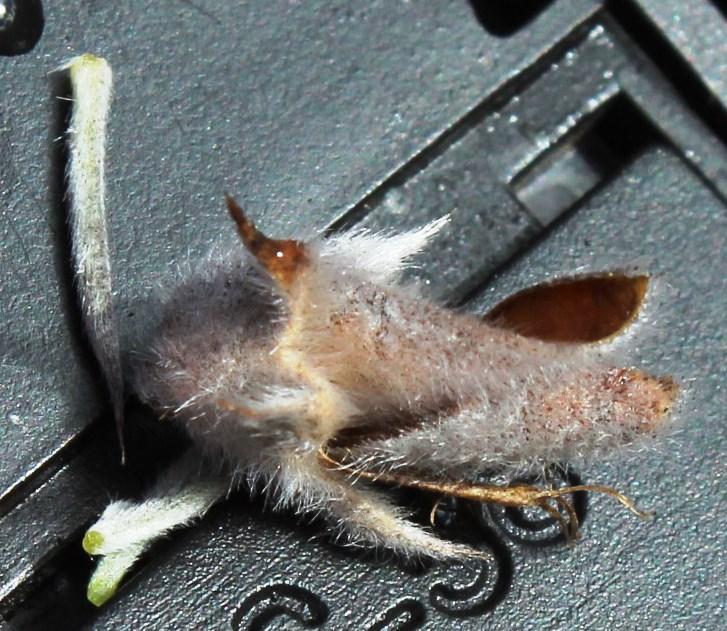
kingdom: Plantae
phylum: Tracheophyta
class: Magnoliopsida
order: Fabales
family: Fabaceae
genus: Aspalathus
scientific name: Aspalathus hystrix
